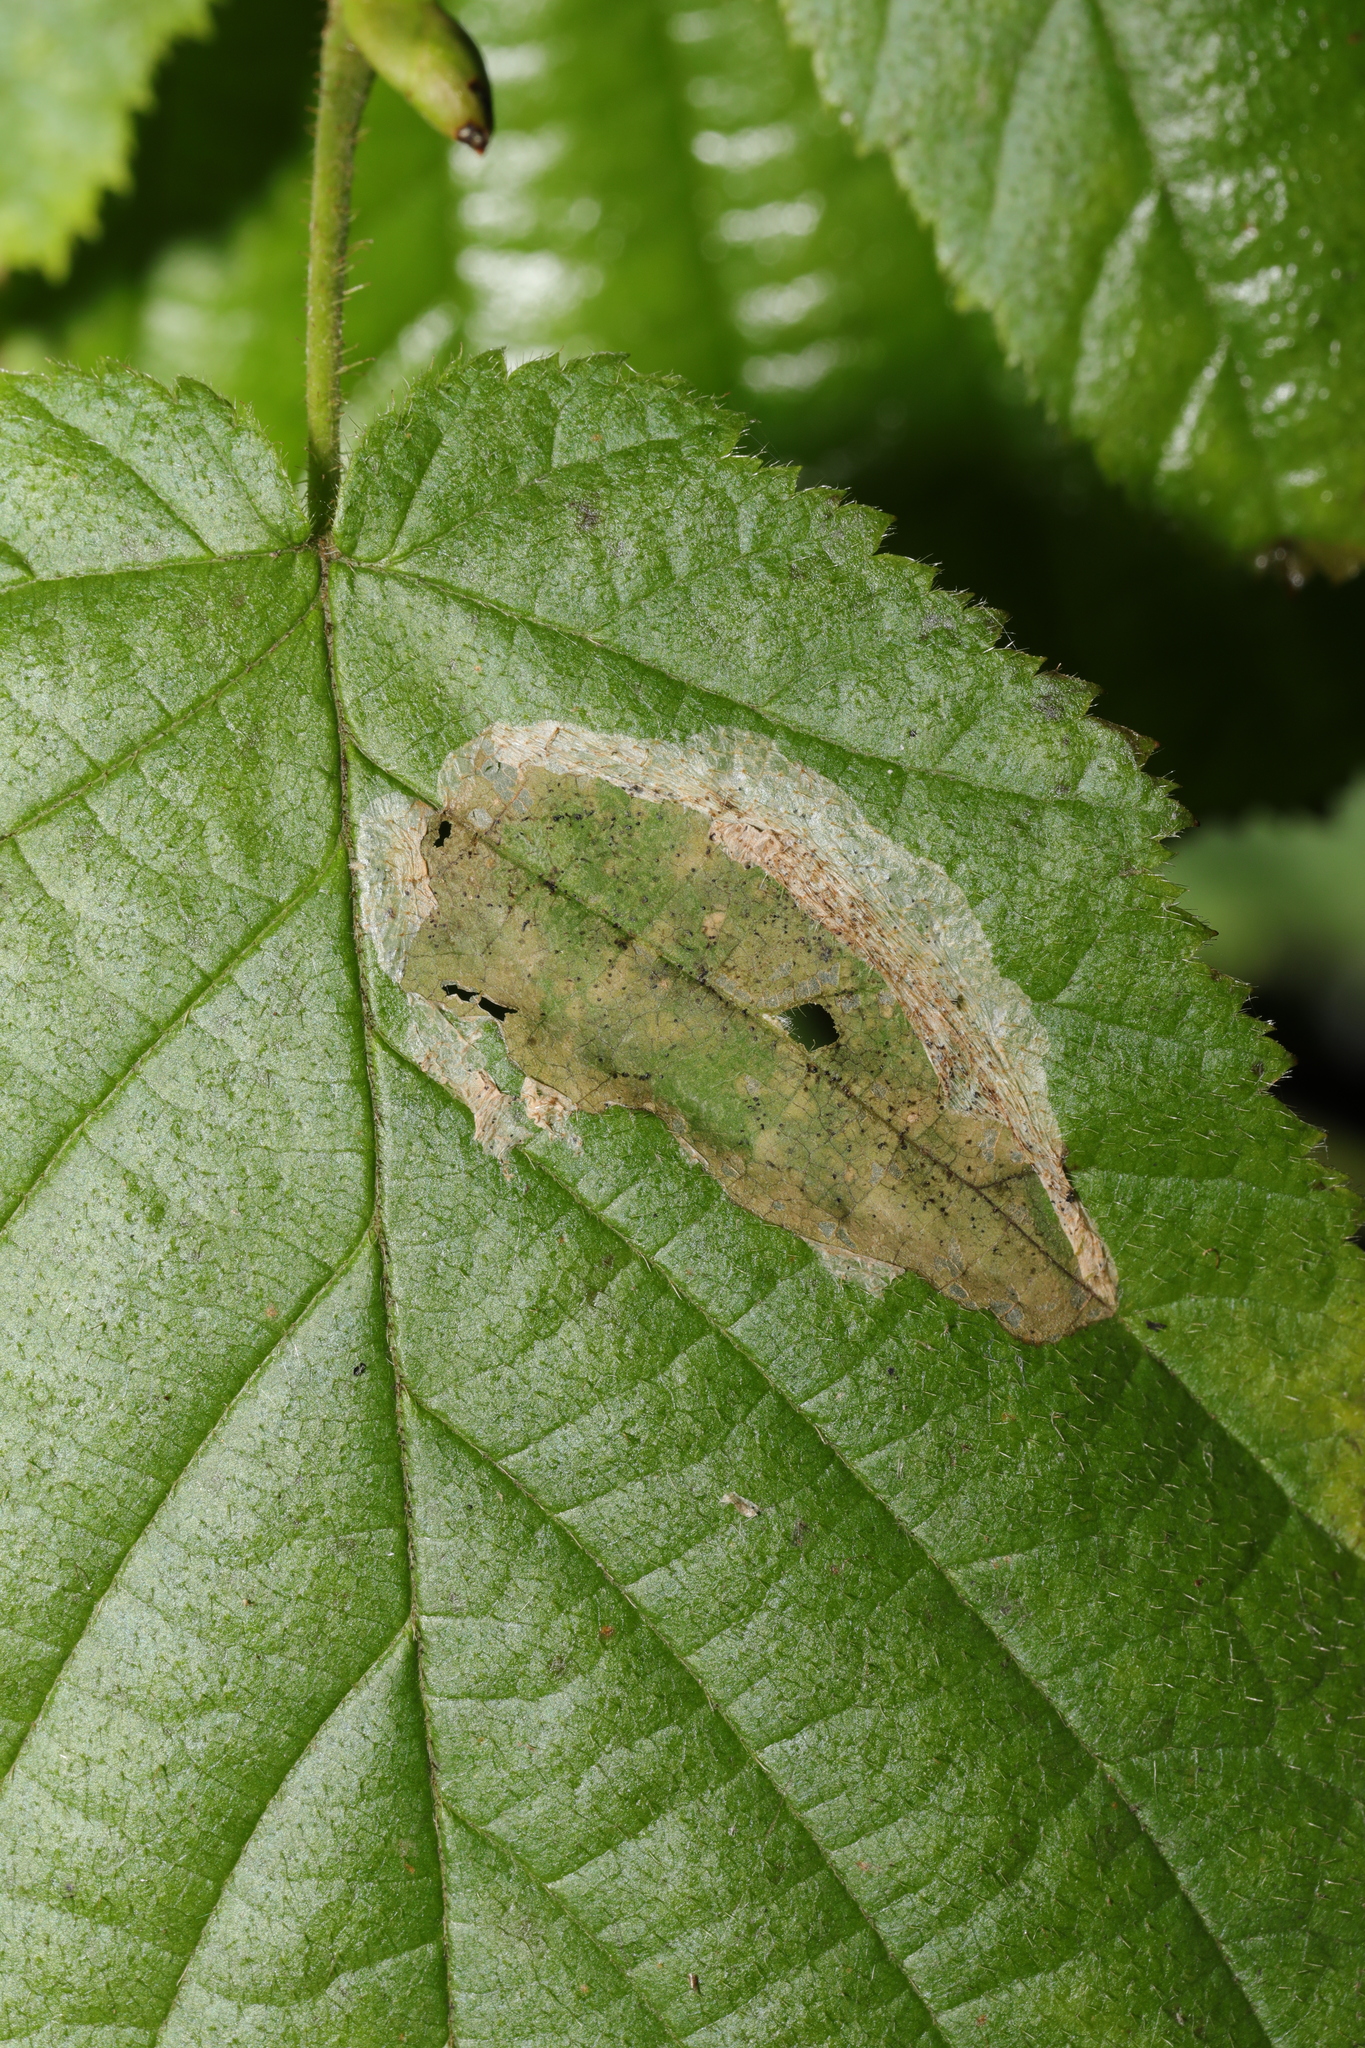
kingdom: Animalia
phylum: Arthropoda
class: Insecta
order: Lepidoptera
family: Gracillariidae
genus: Phyllonorycter
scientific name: Phyllonorycter coryli
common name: Nut-leaf blister moth
